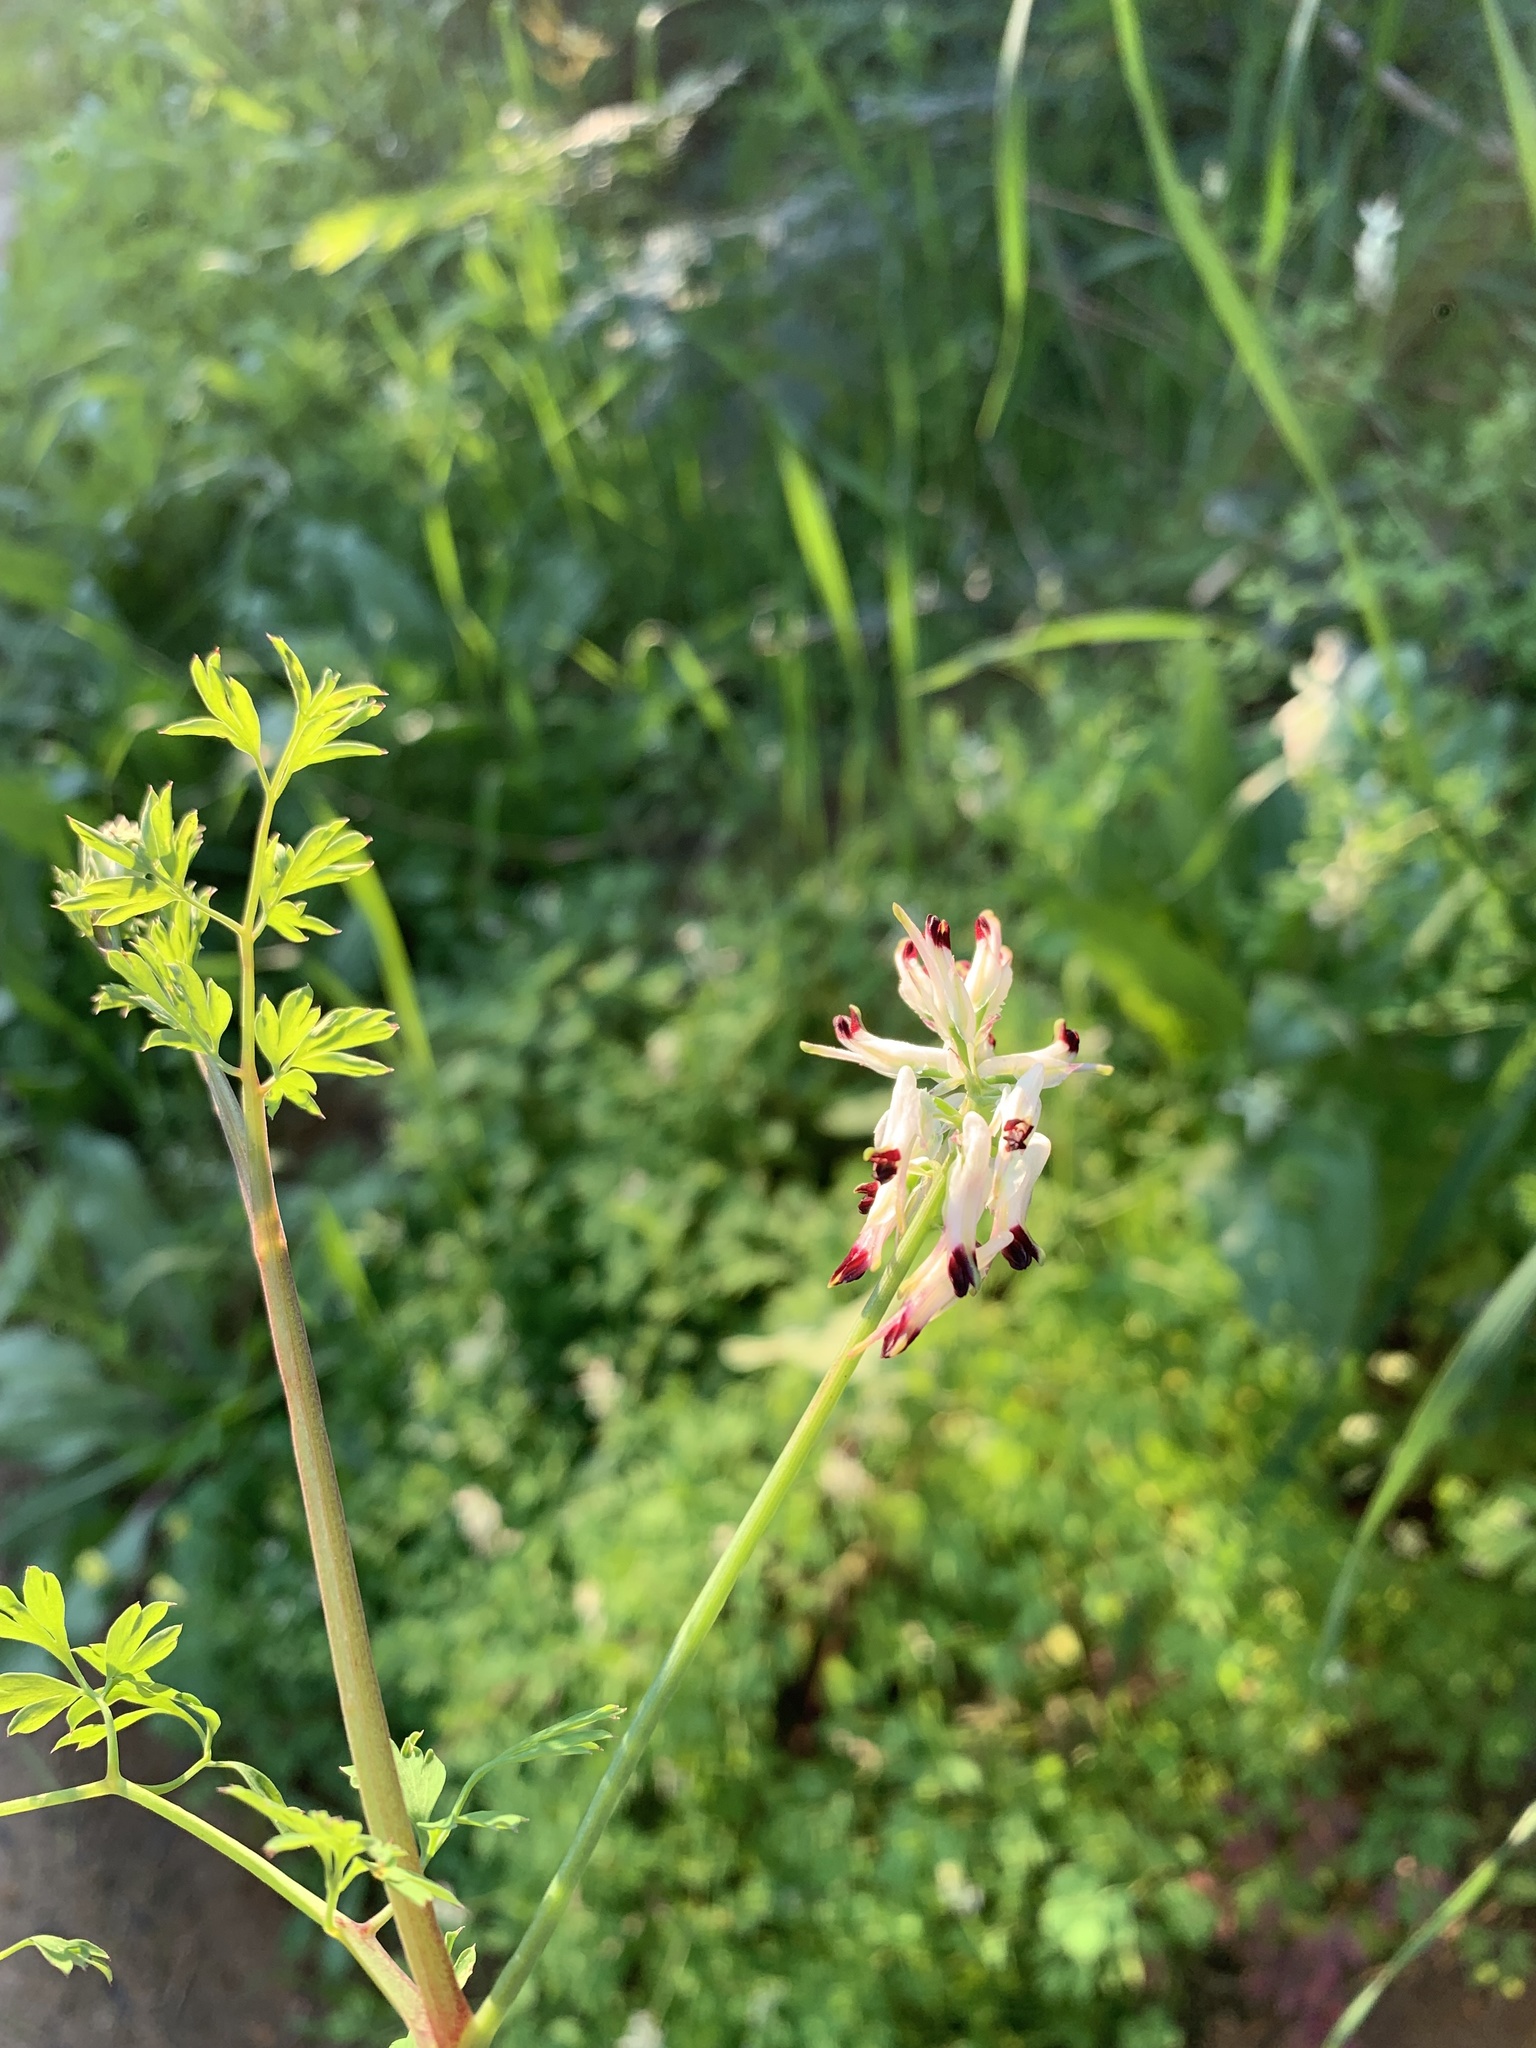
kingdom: Plantae
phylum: Tracheophyta
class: Magnoliopsida
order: Ranunculales
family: Papaveraceae
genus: Fumaria
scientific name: Fumaria capreolata
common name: White ramping-fumitory
